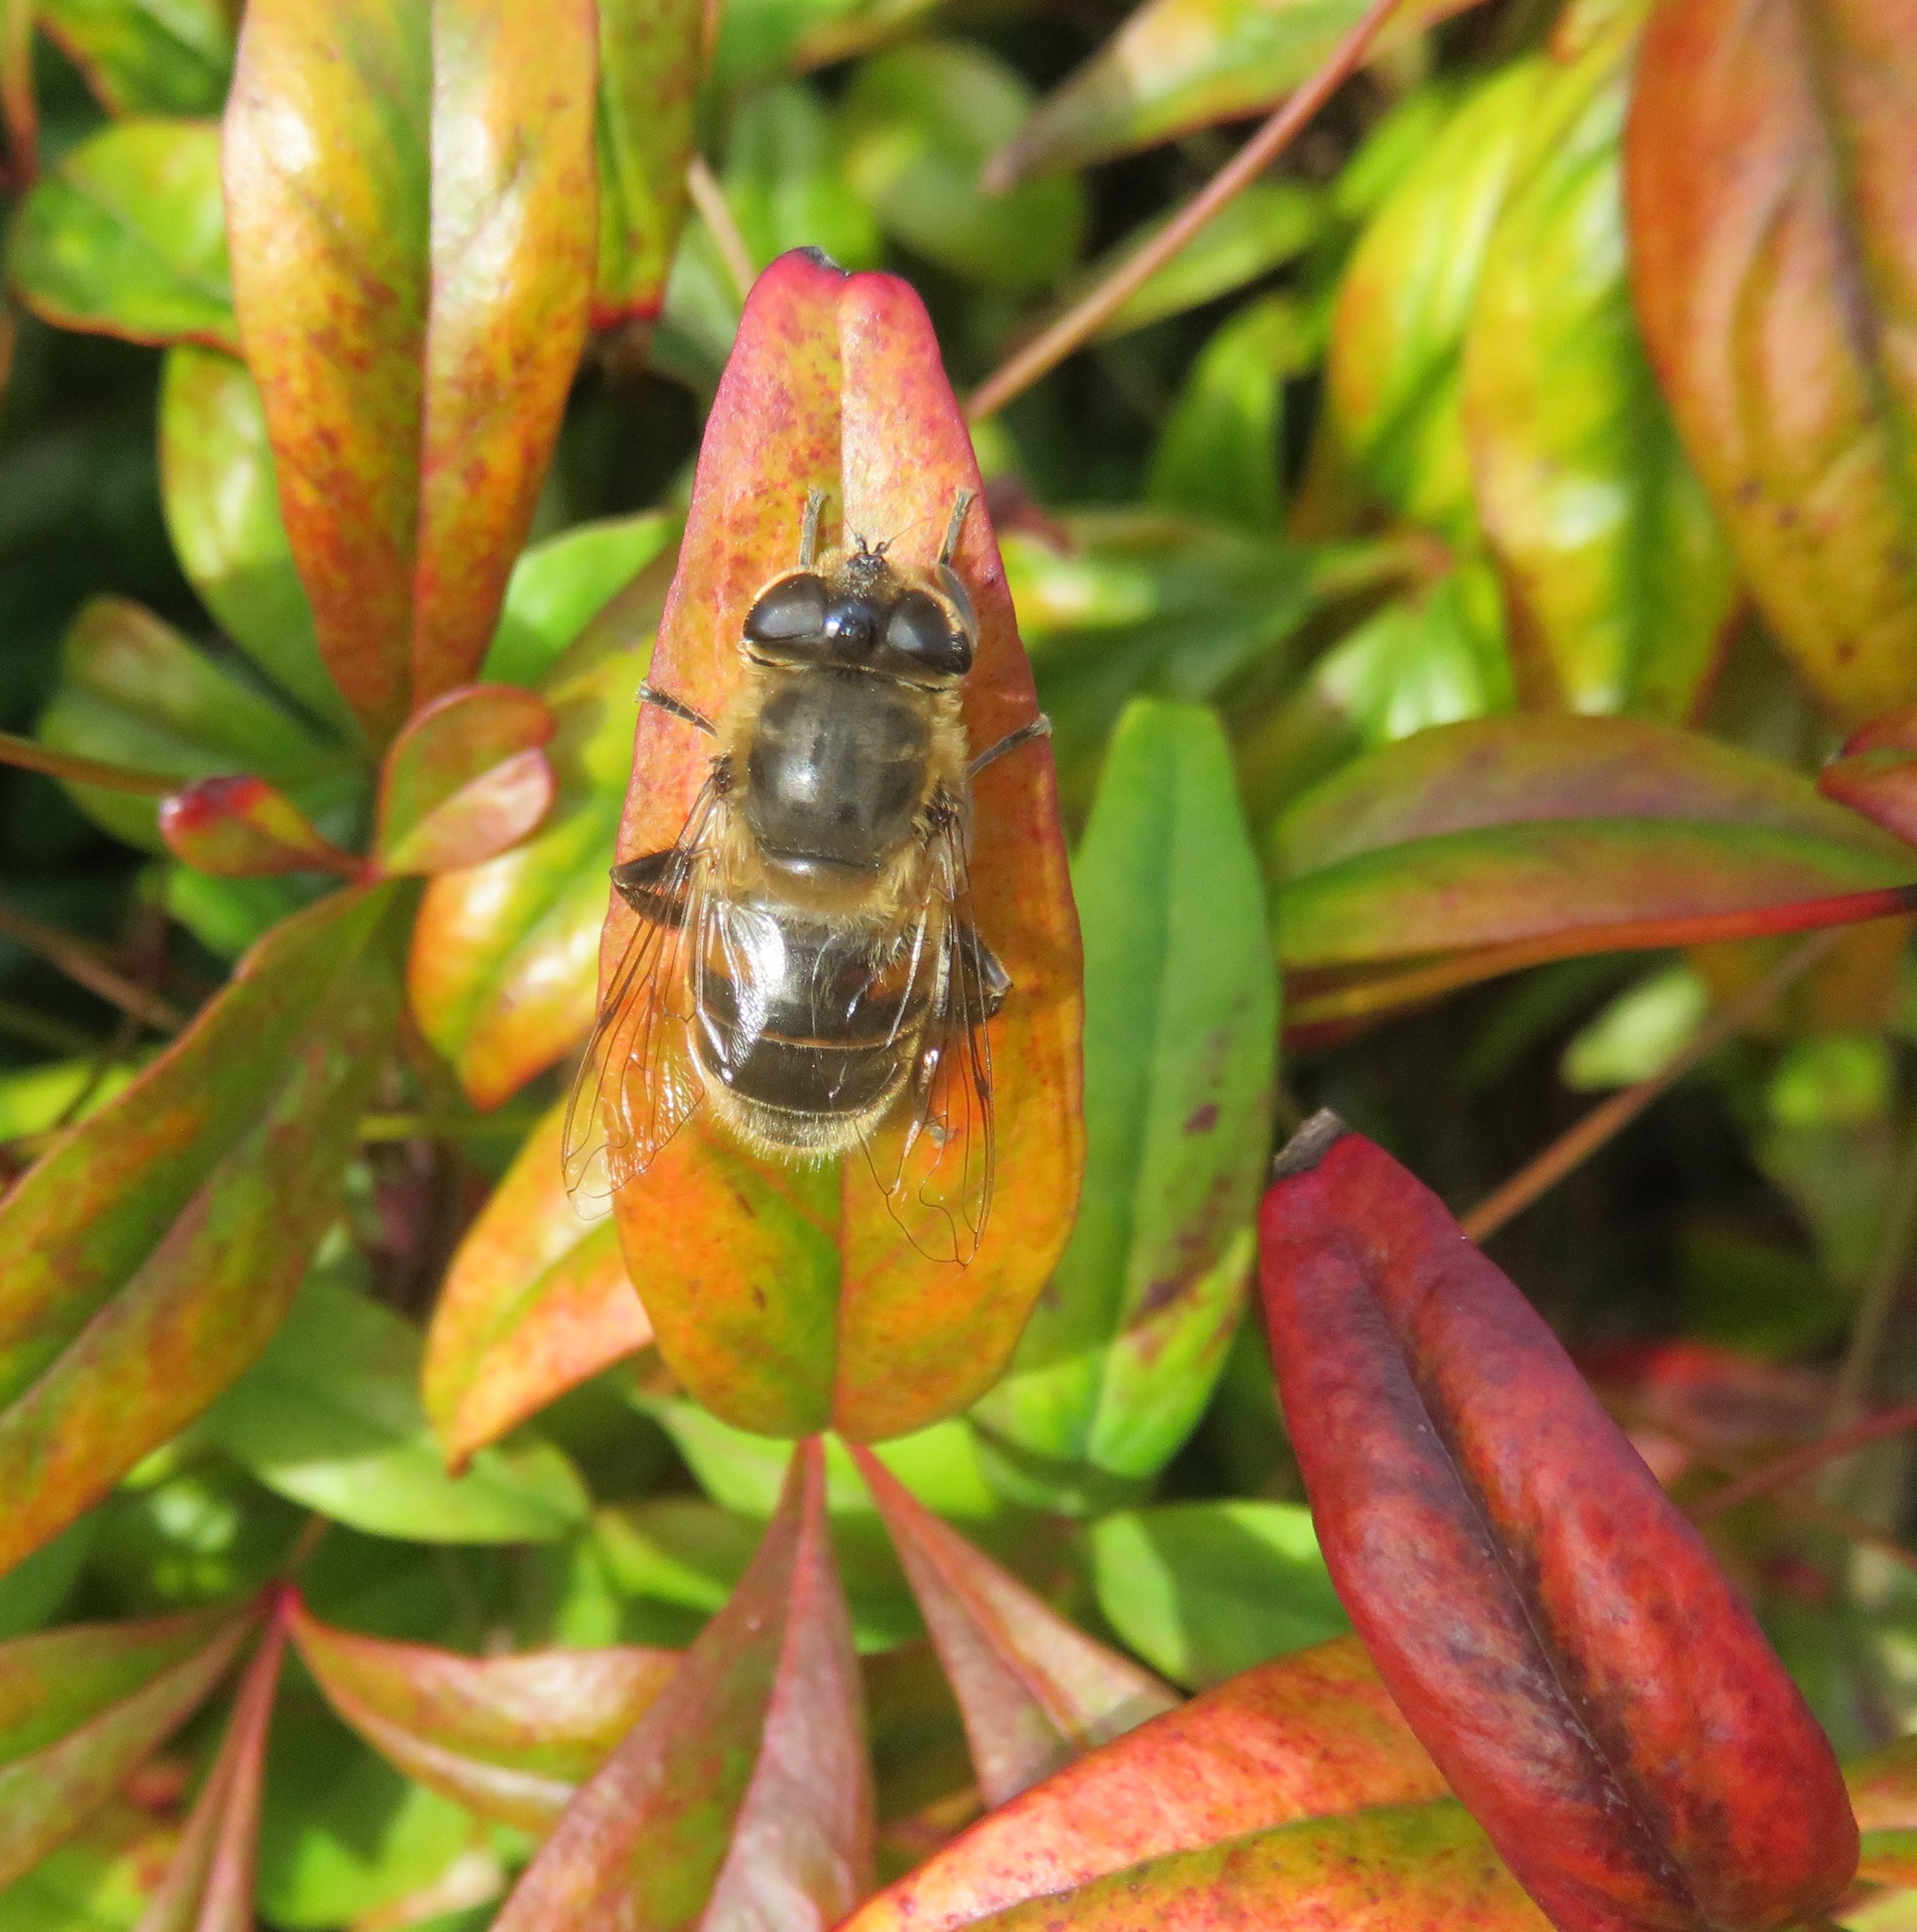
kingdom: Animalia
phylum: Arthropoda
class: Insecta
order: Diptera
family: Syrphidae
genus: Eristalis
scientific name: Eristalis tenax
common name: Drone fly
